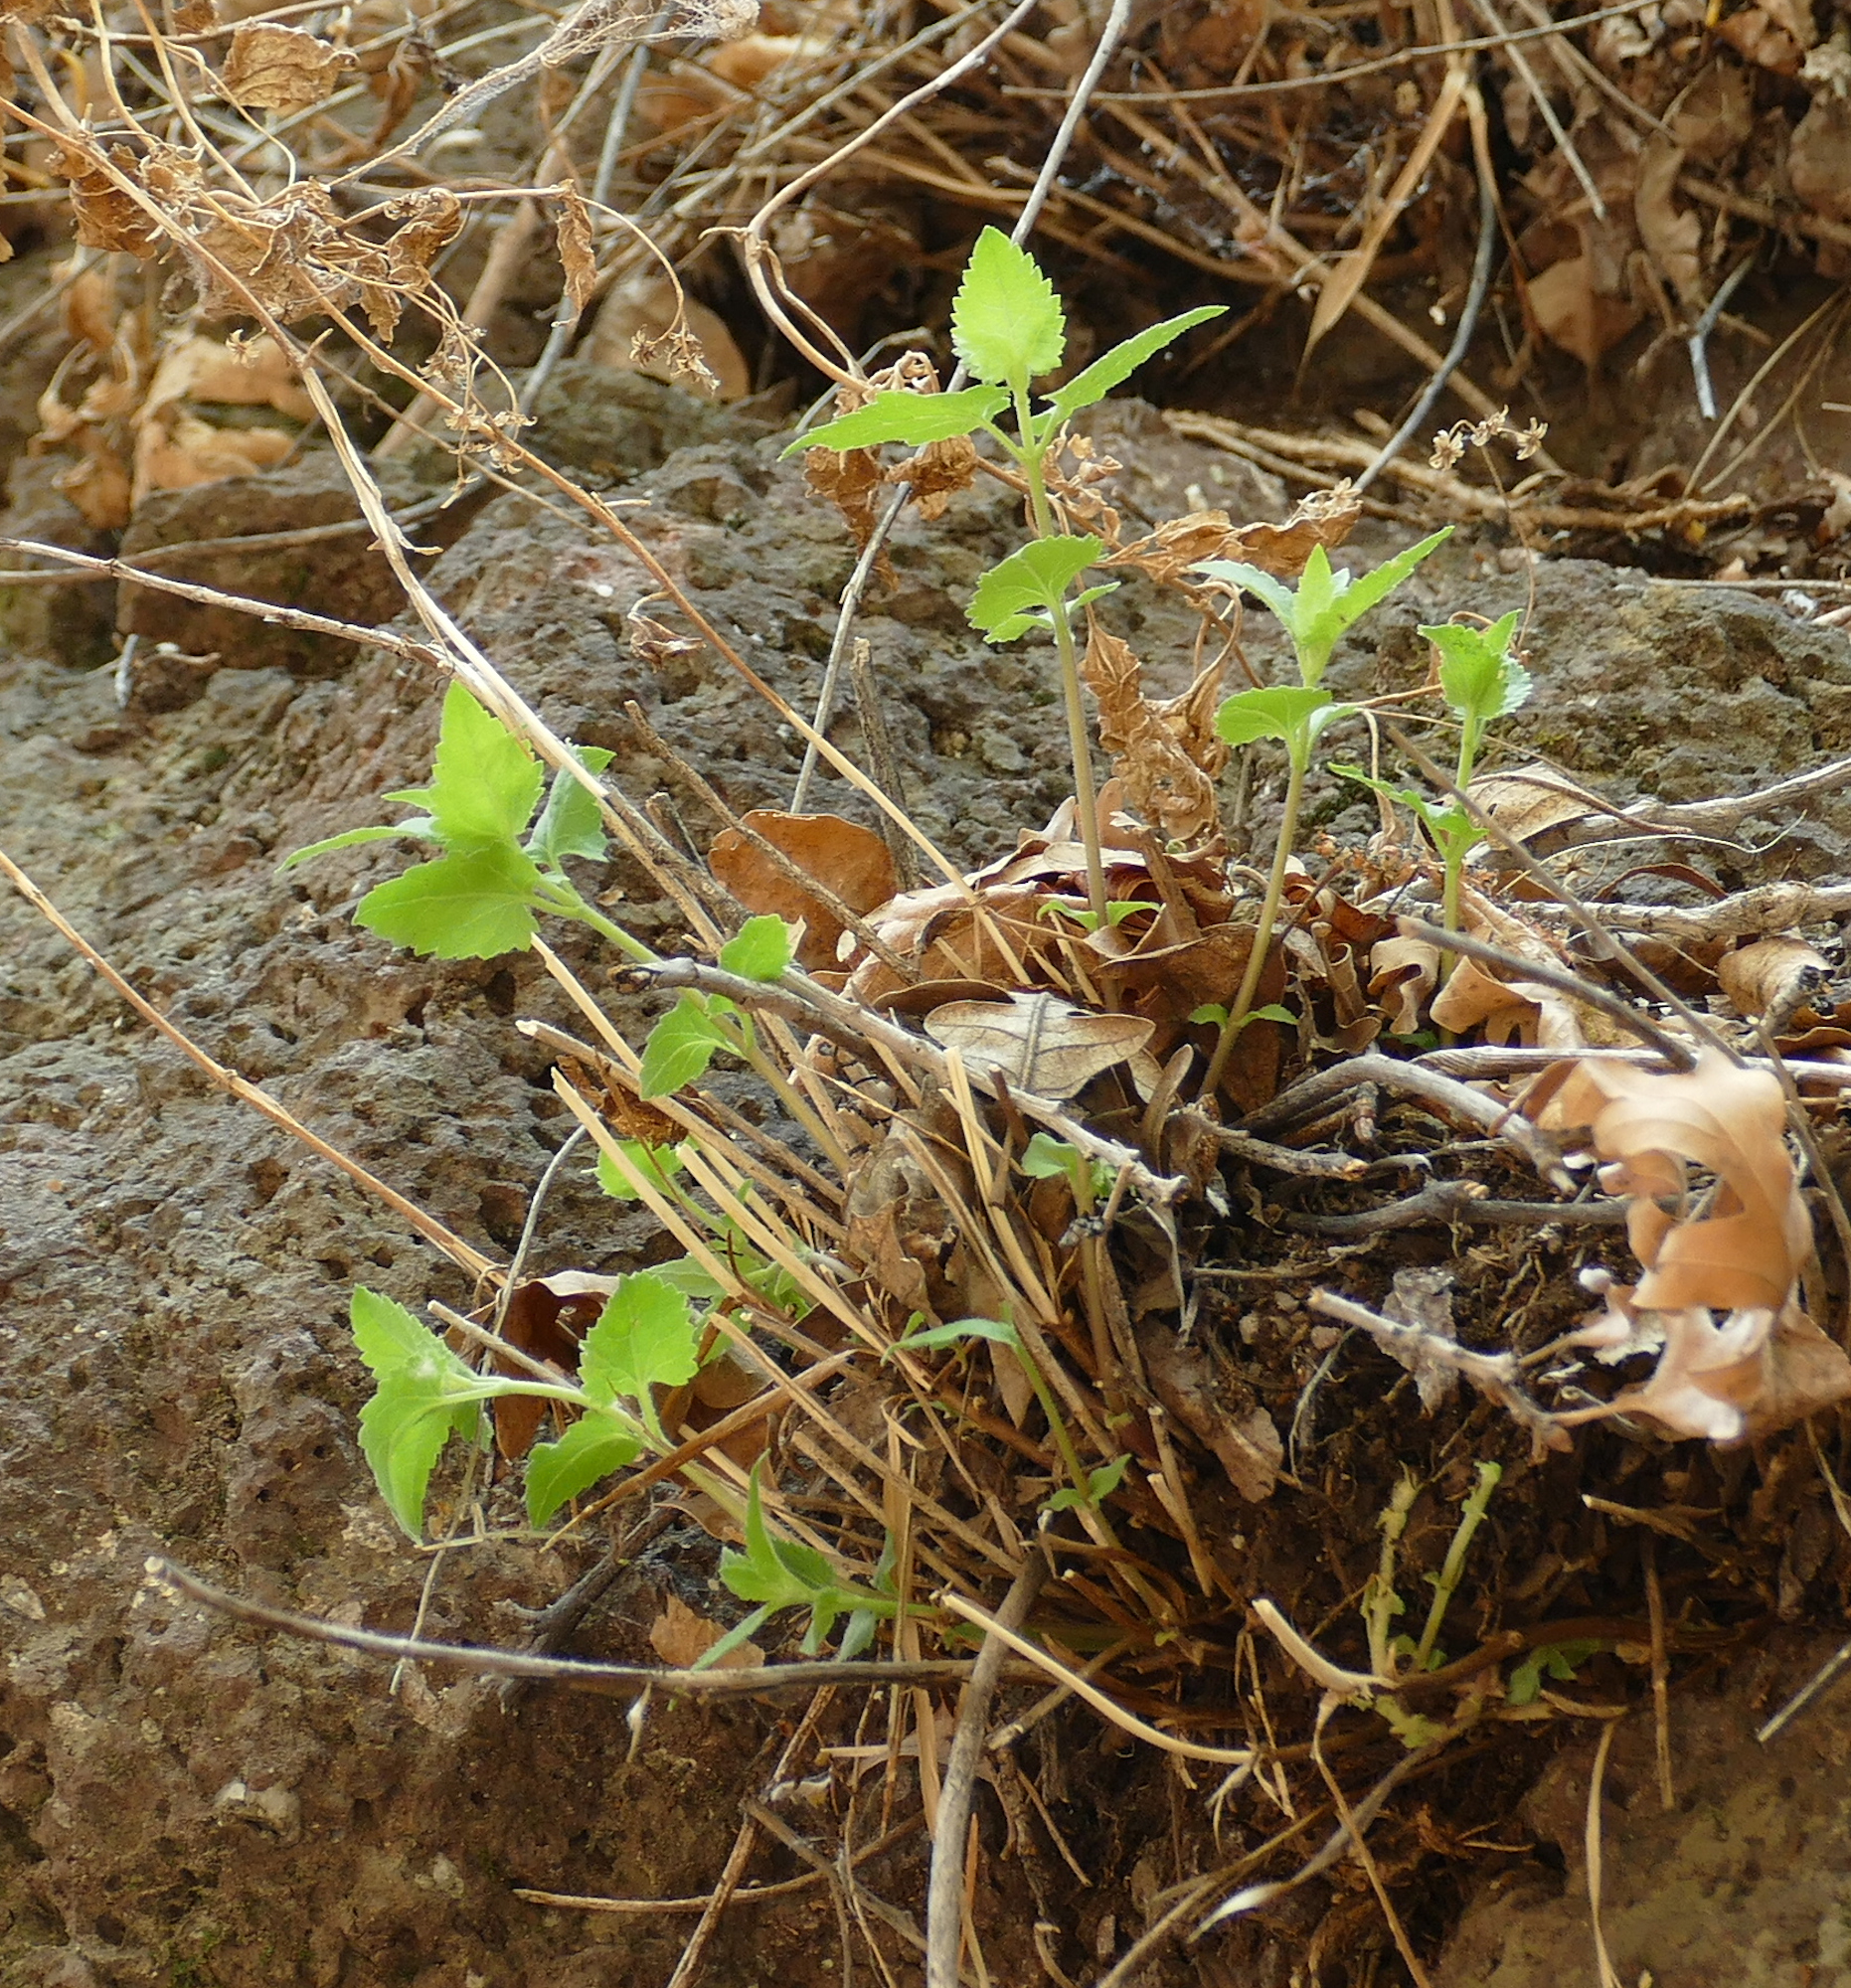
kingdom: Plantae
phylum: Tracheophyta
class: Magnoliopsida
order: Asterales
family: Asteraceae
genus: Ageratina
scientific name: Ageratina herbacea
